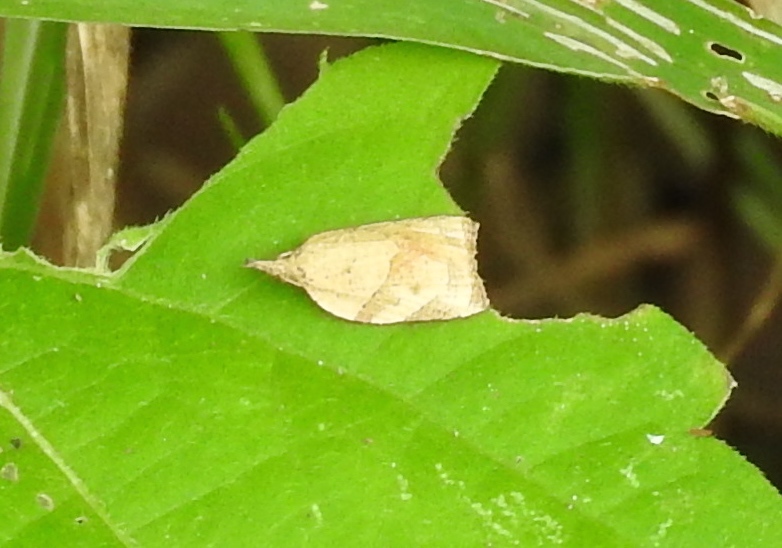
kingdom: Animalia
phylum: Arthropoda
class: Insecta
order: Lepidoptera
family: Tortricidae
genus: Platynota
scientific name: Platynota
